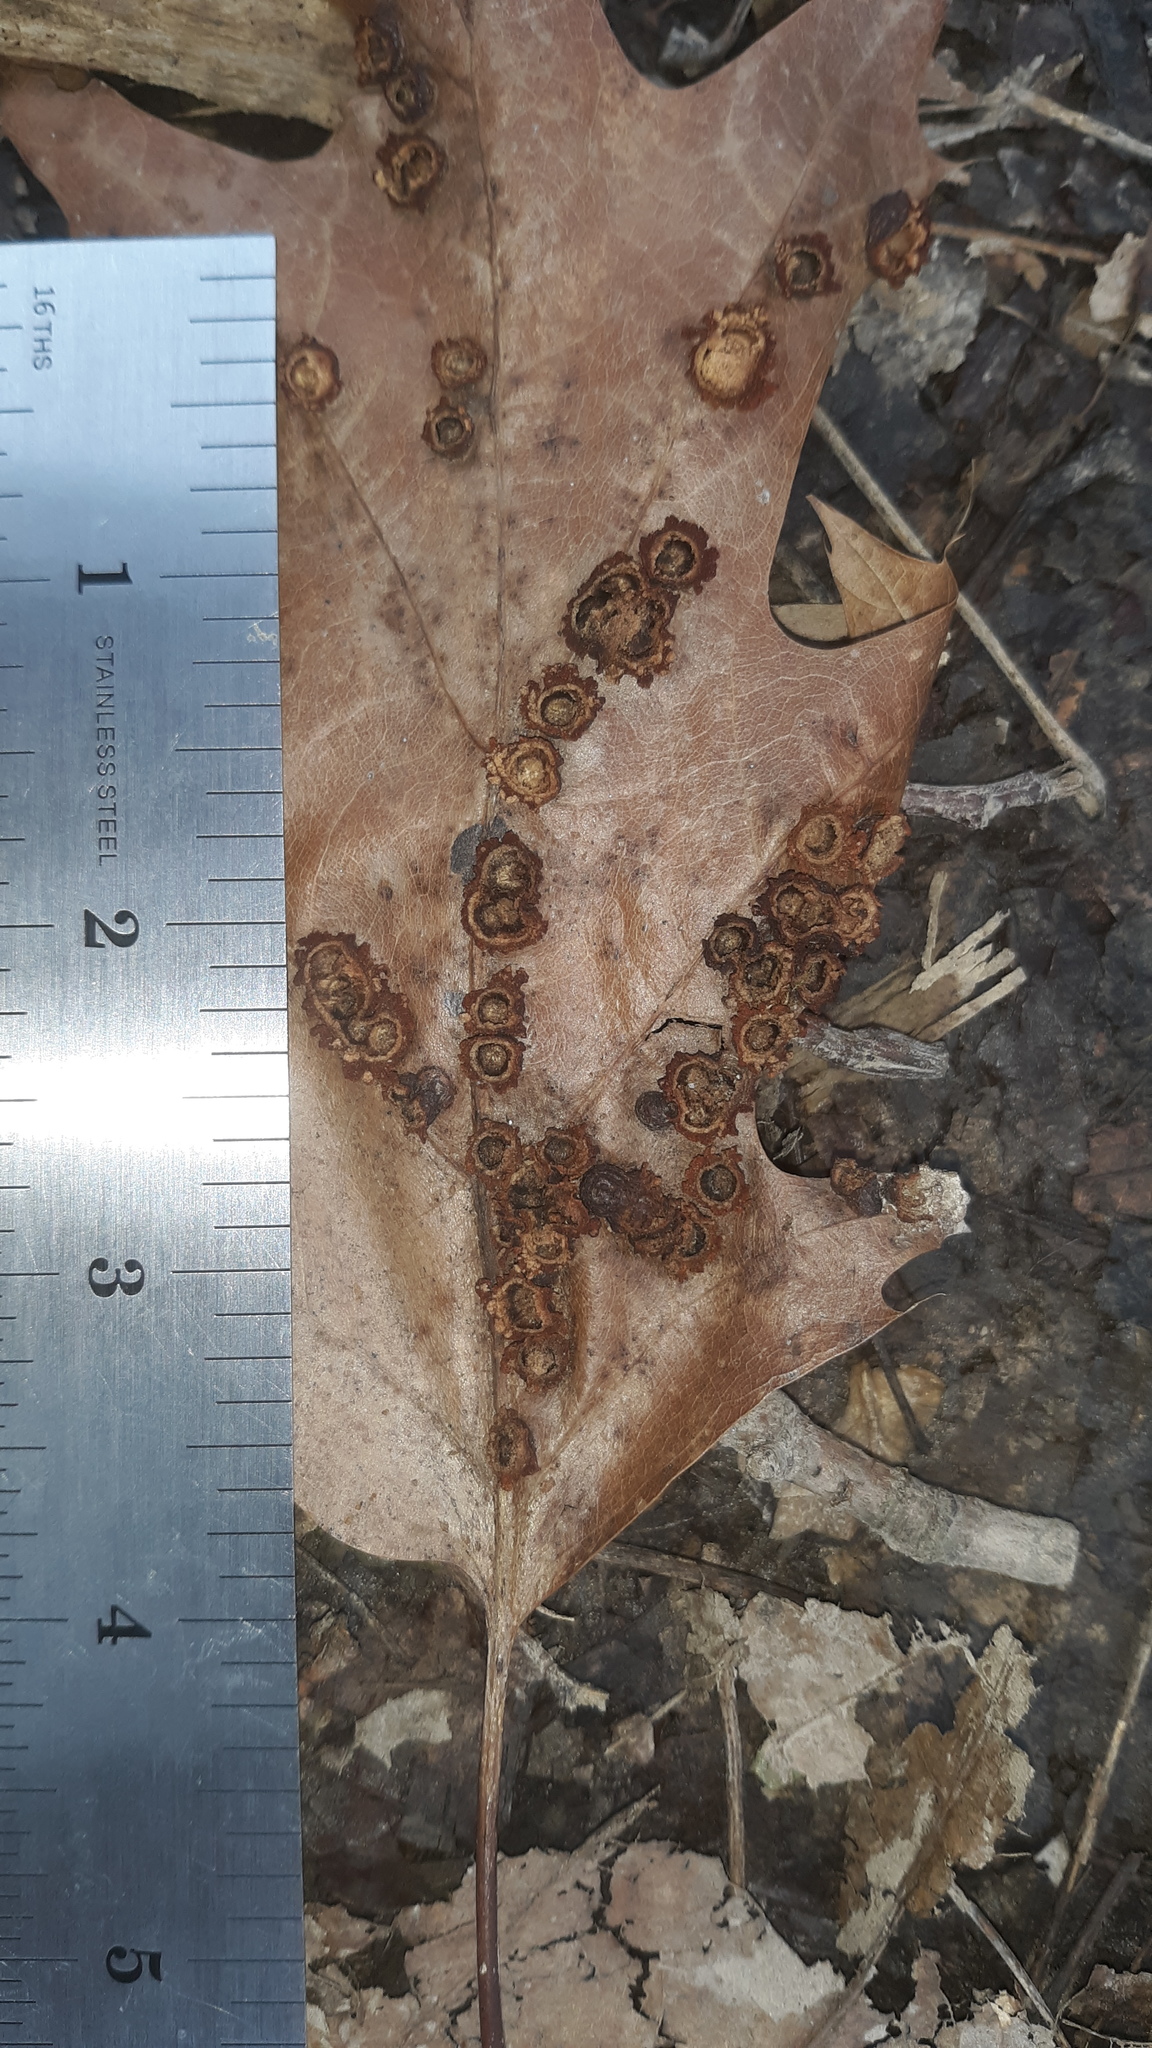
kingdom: Animalia
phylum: Arthropoda
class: Insecta
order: Diptera
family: Cecidomyiidae
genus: Polystepha
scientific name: Polystepha pilulae
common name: Oak leaf gall midge
